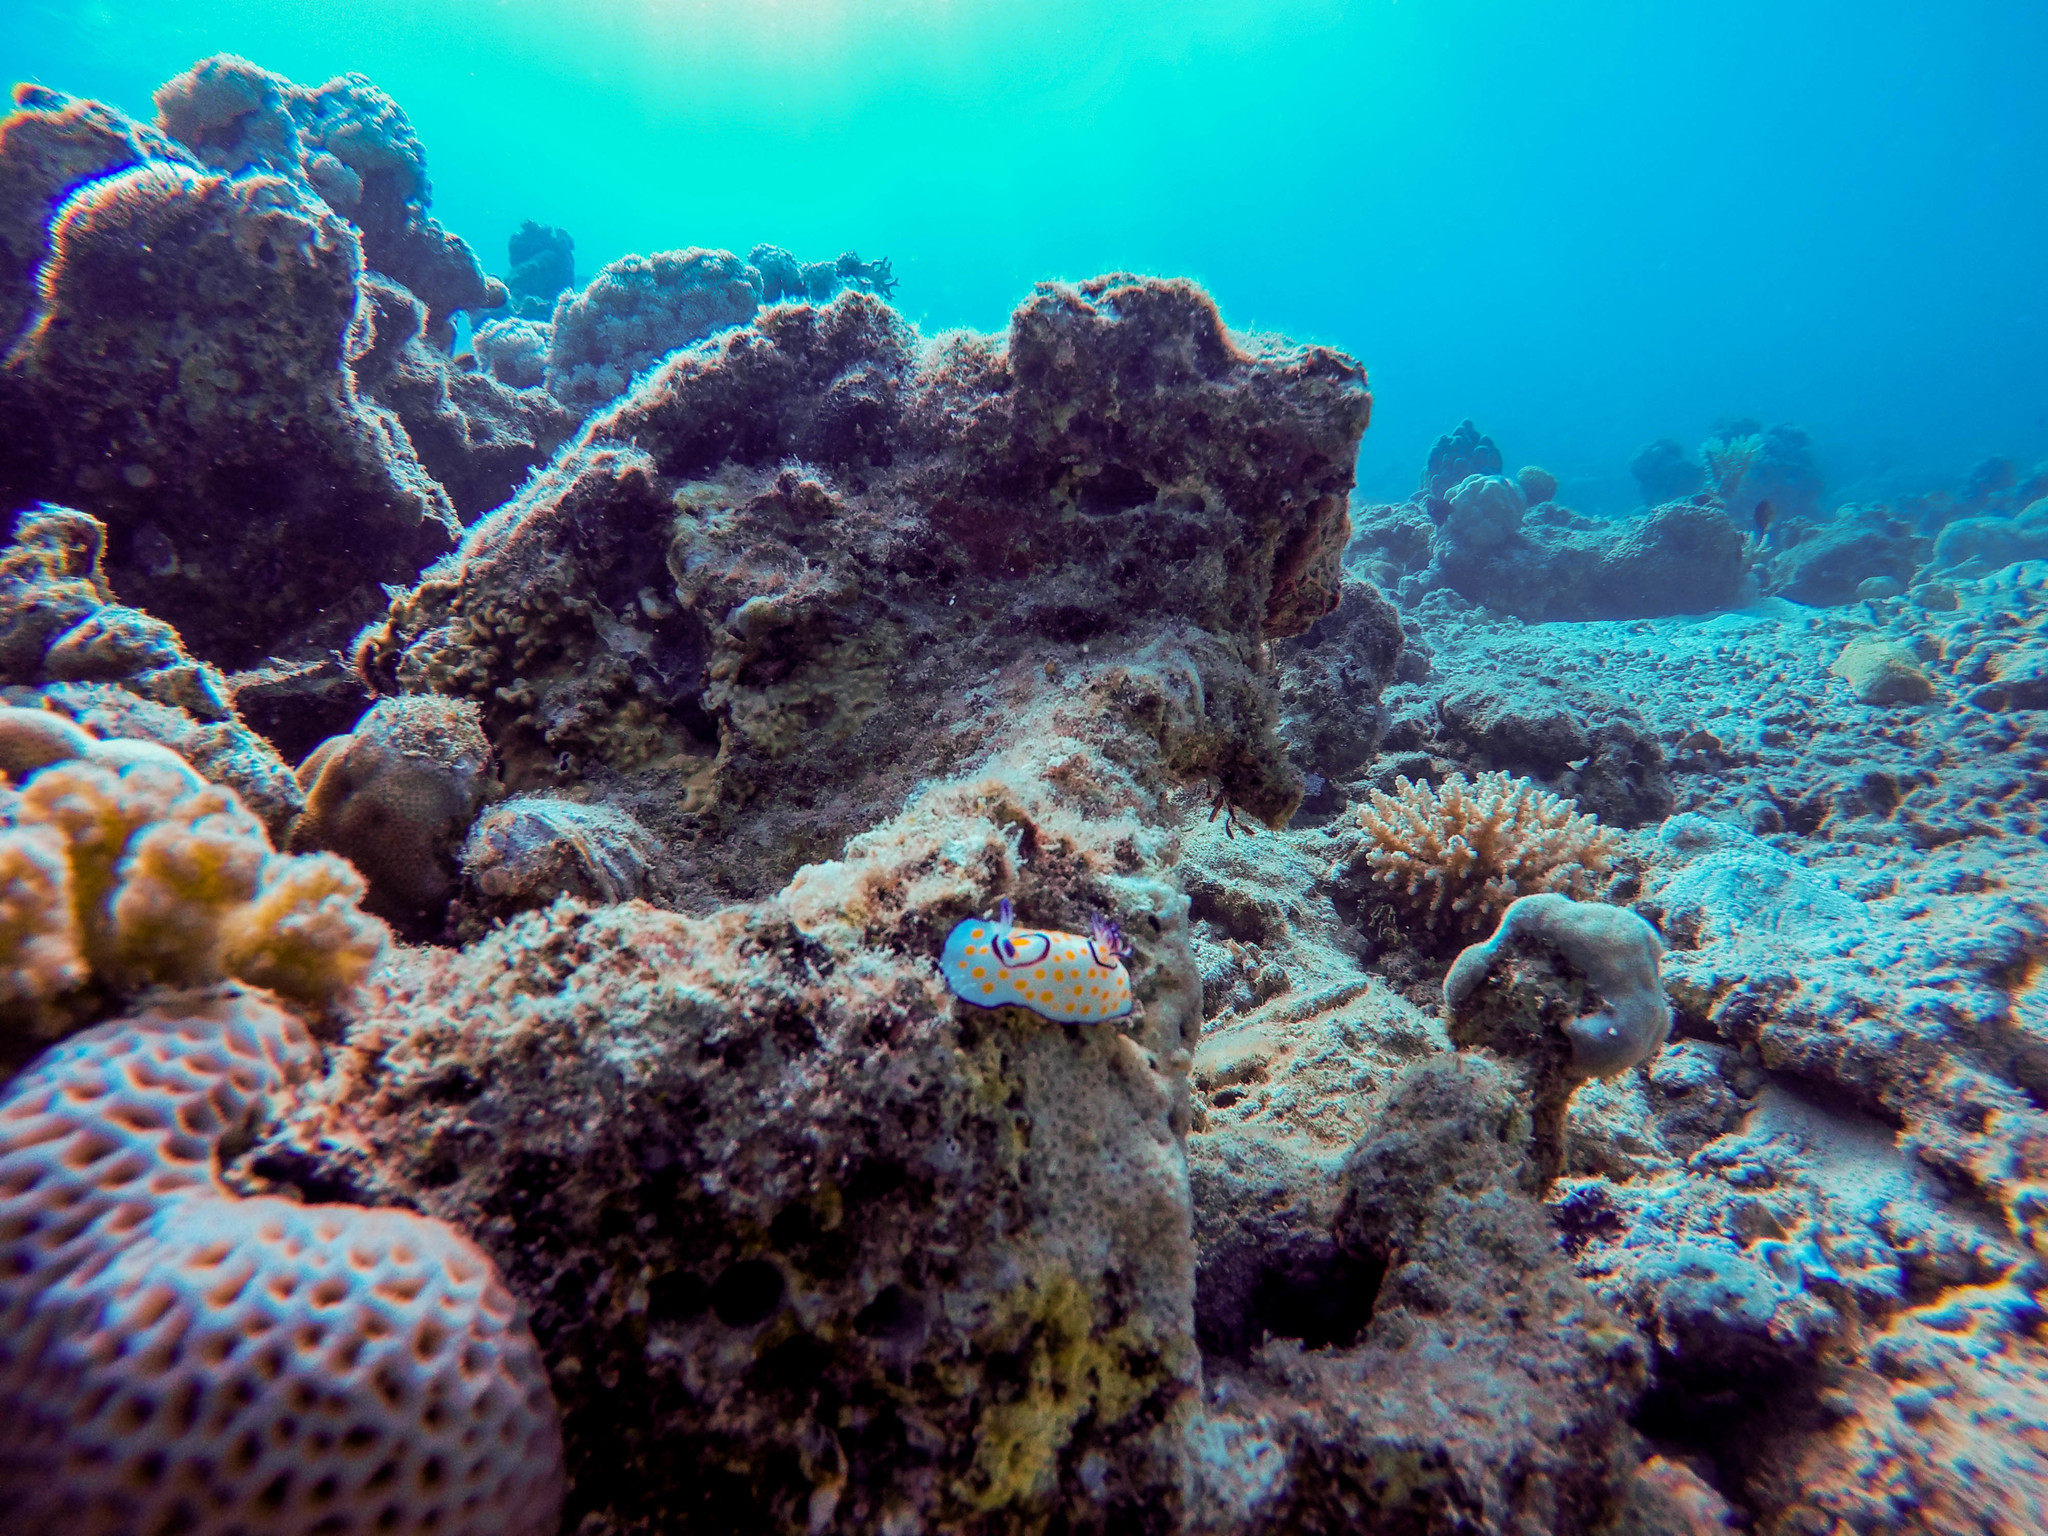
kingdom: Animalia
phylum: Mollusca
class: Gastropoda
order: Nudibranchia
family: Chromodorididae
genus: Goniobranchus
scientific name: Goniobranchus annulatus
